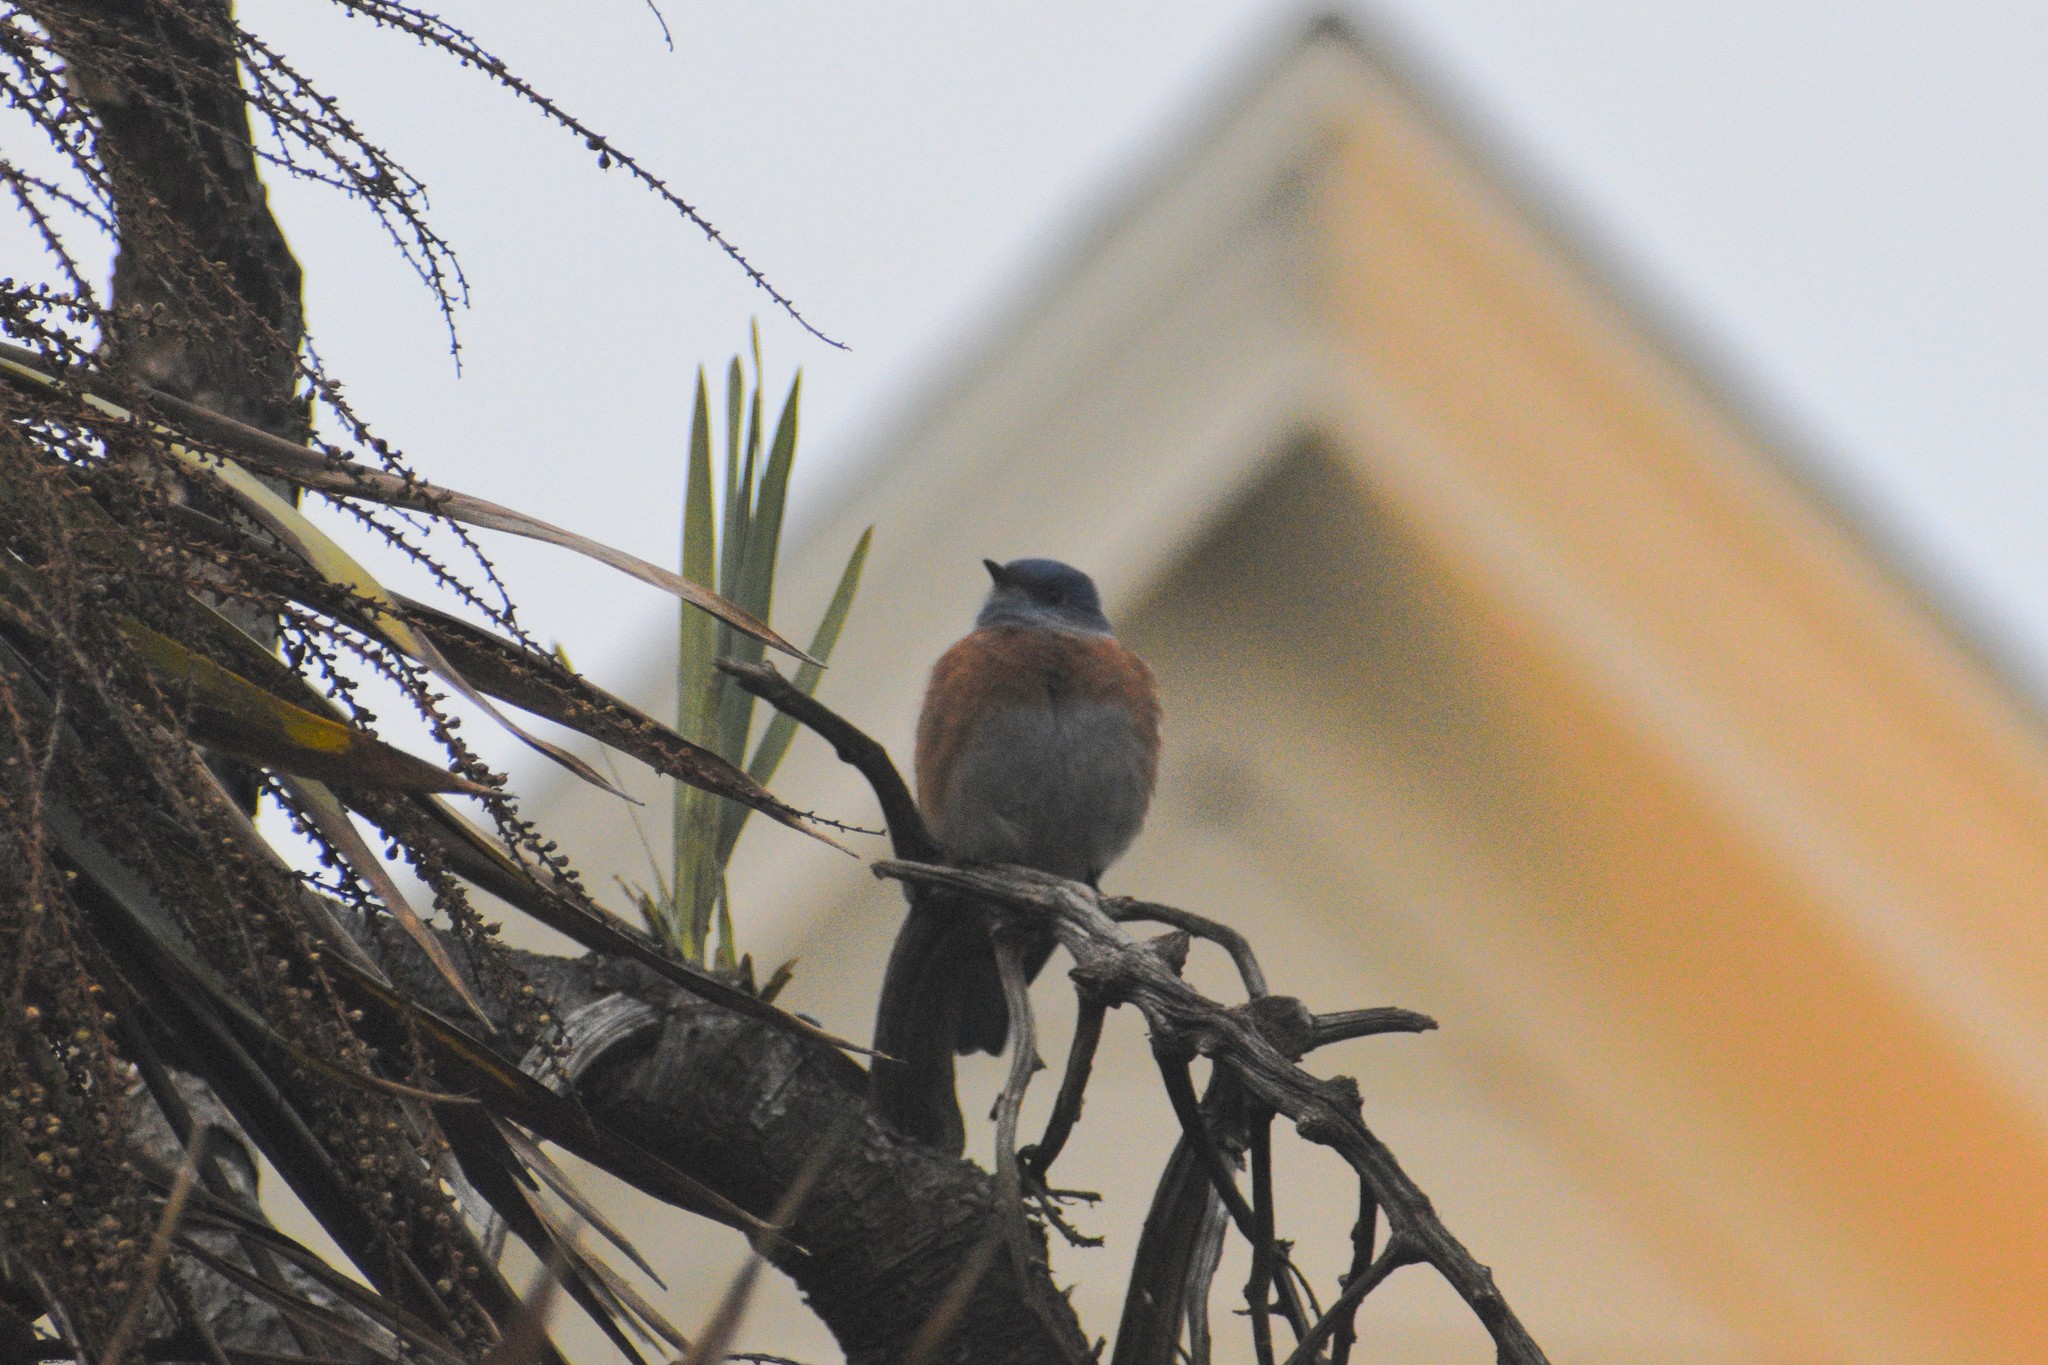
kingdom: Animalia
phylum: Chordata
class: Aves
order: Passeriformes
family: Turdidae
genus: Sialia
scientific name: Sialia mexicana
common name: Western bluebird
